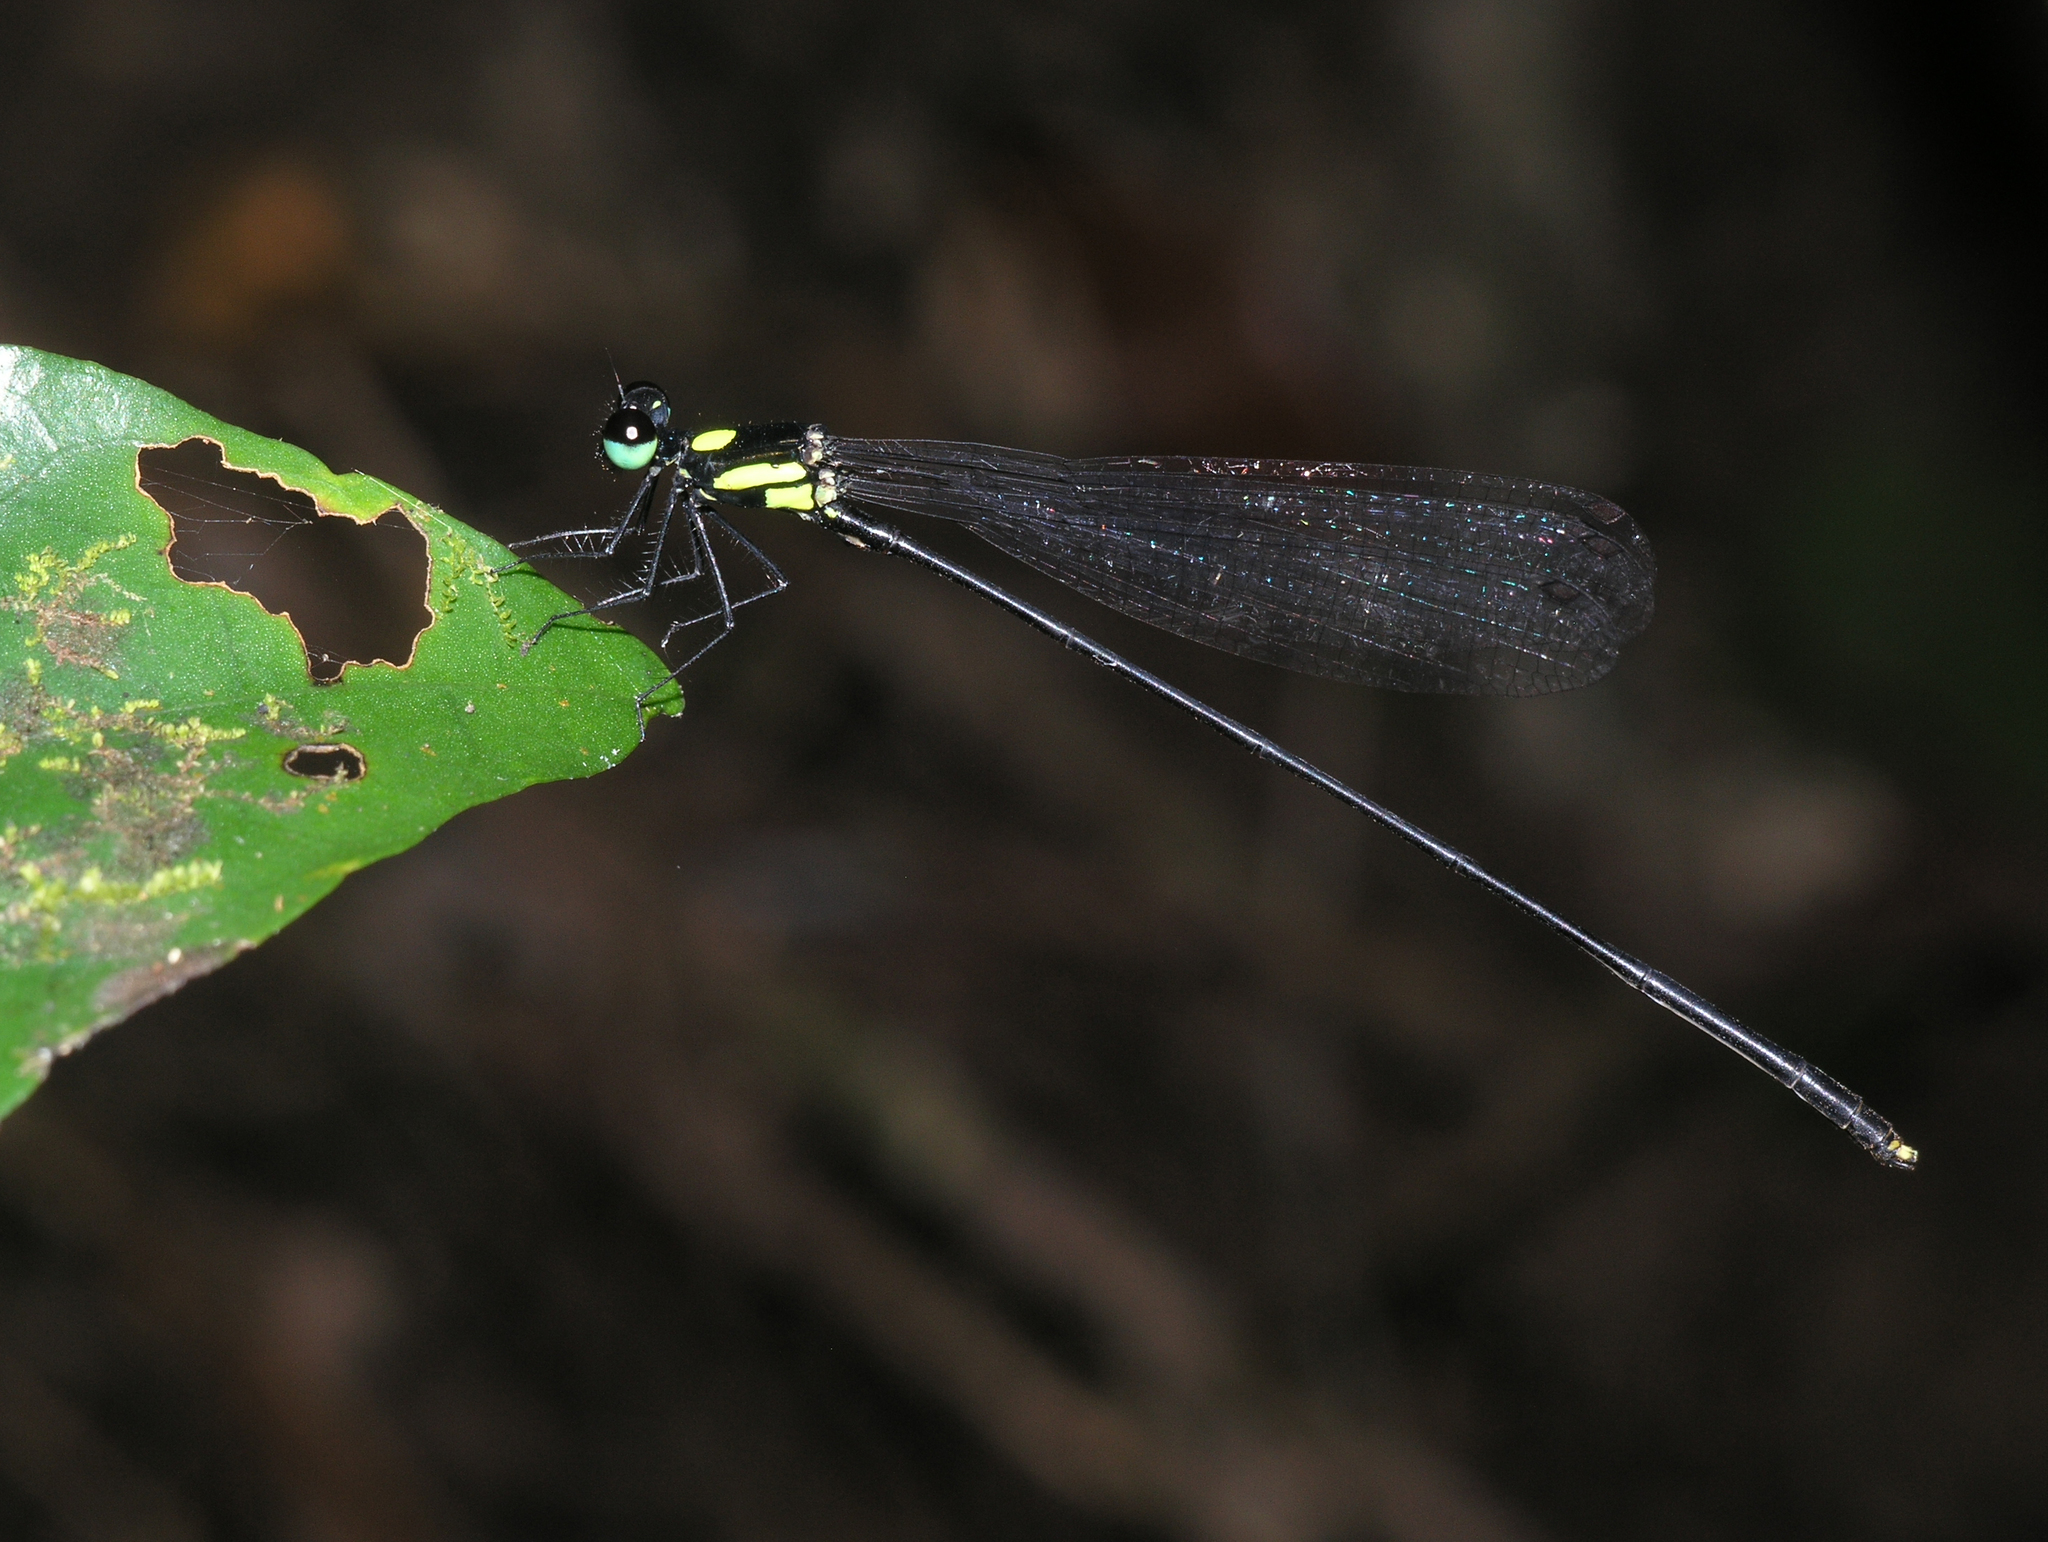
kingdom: Animalia
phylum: Arthropoda
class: Insecta
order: Odonata
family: Platycnemididae
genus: Coeliccia
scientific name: Coeliccia yamasakii
